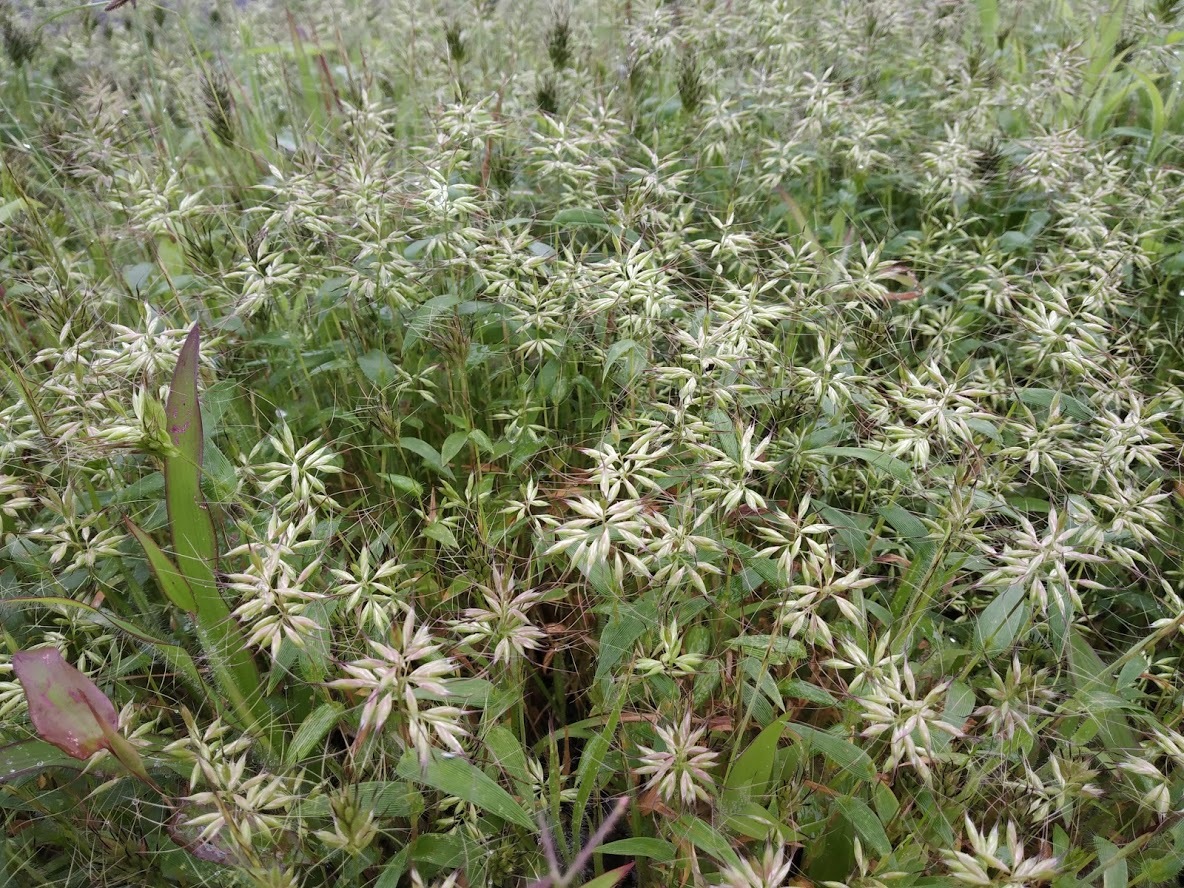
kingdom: Plantae
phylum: Tracheophyta
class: Liliopsida
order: Poales
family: Poaceae
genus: Jansenella
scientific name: Jansenella griffithiana
